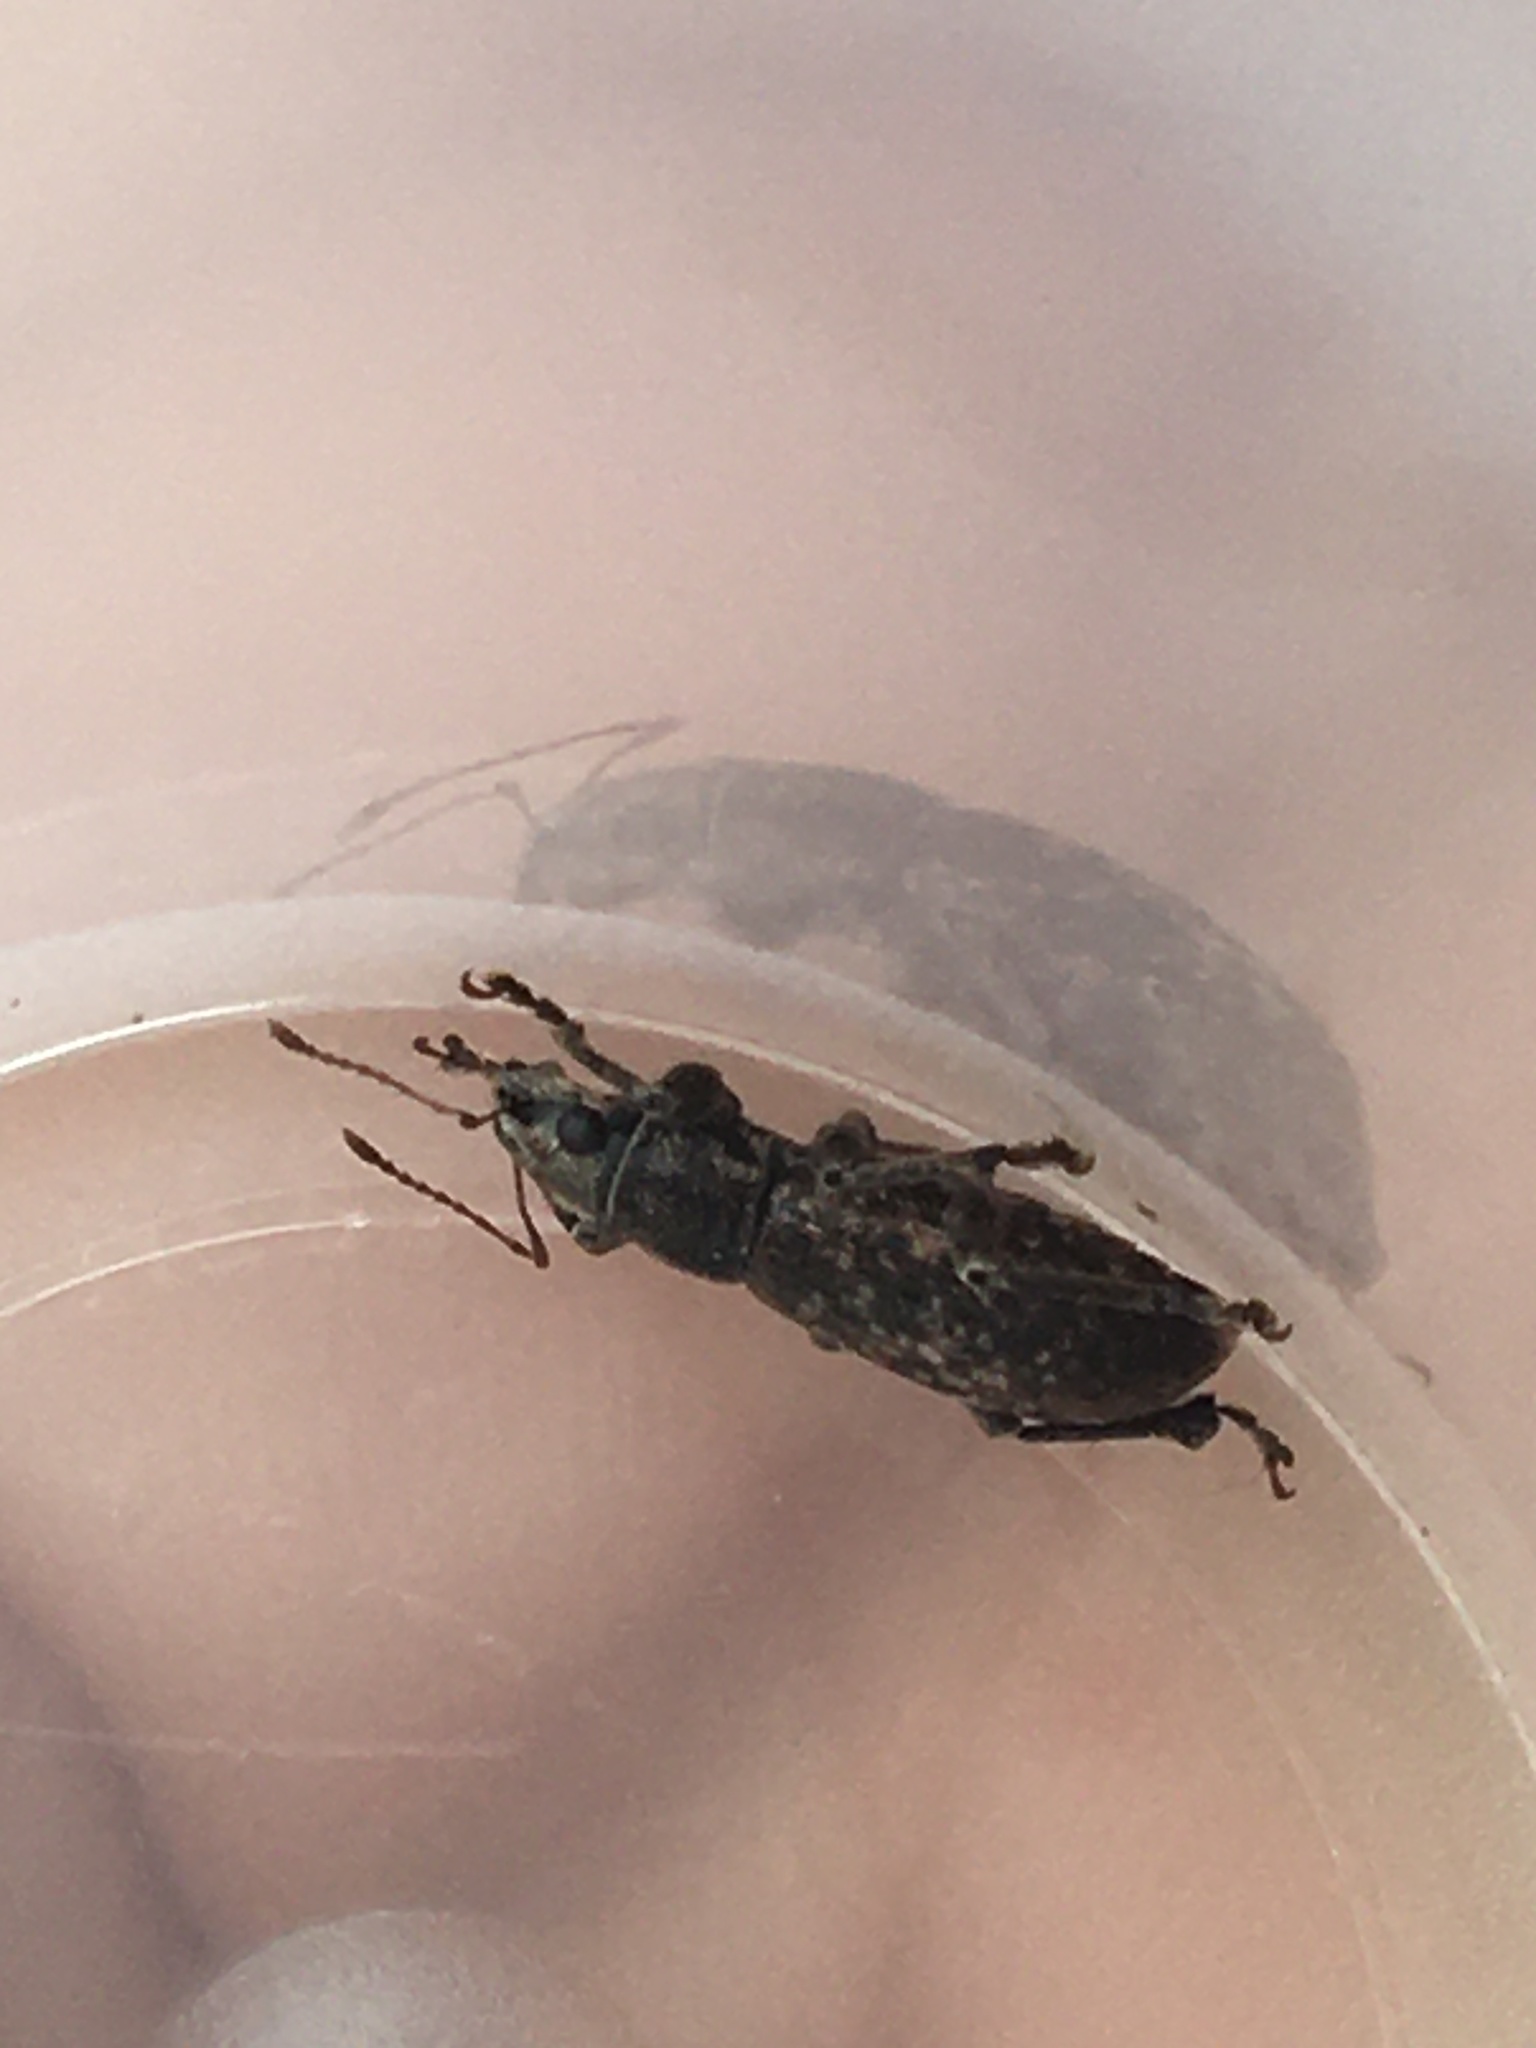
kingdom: Animalia
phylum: Arthropoda
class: Insecta
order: Coleoptera
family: Curculionidae
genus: Brachyderes
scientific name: Brachyderes incanus
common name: Weevil
